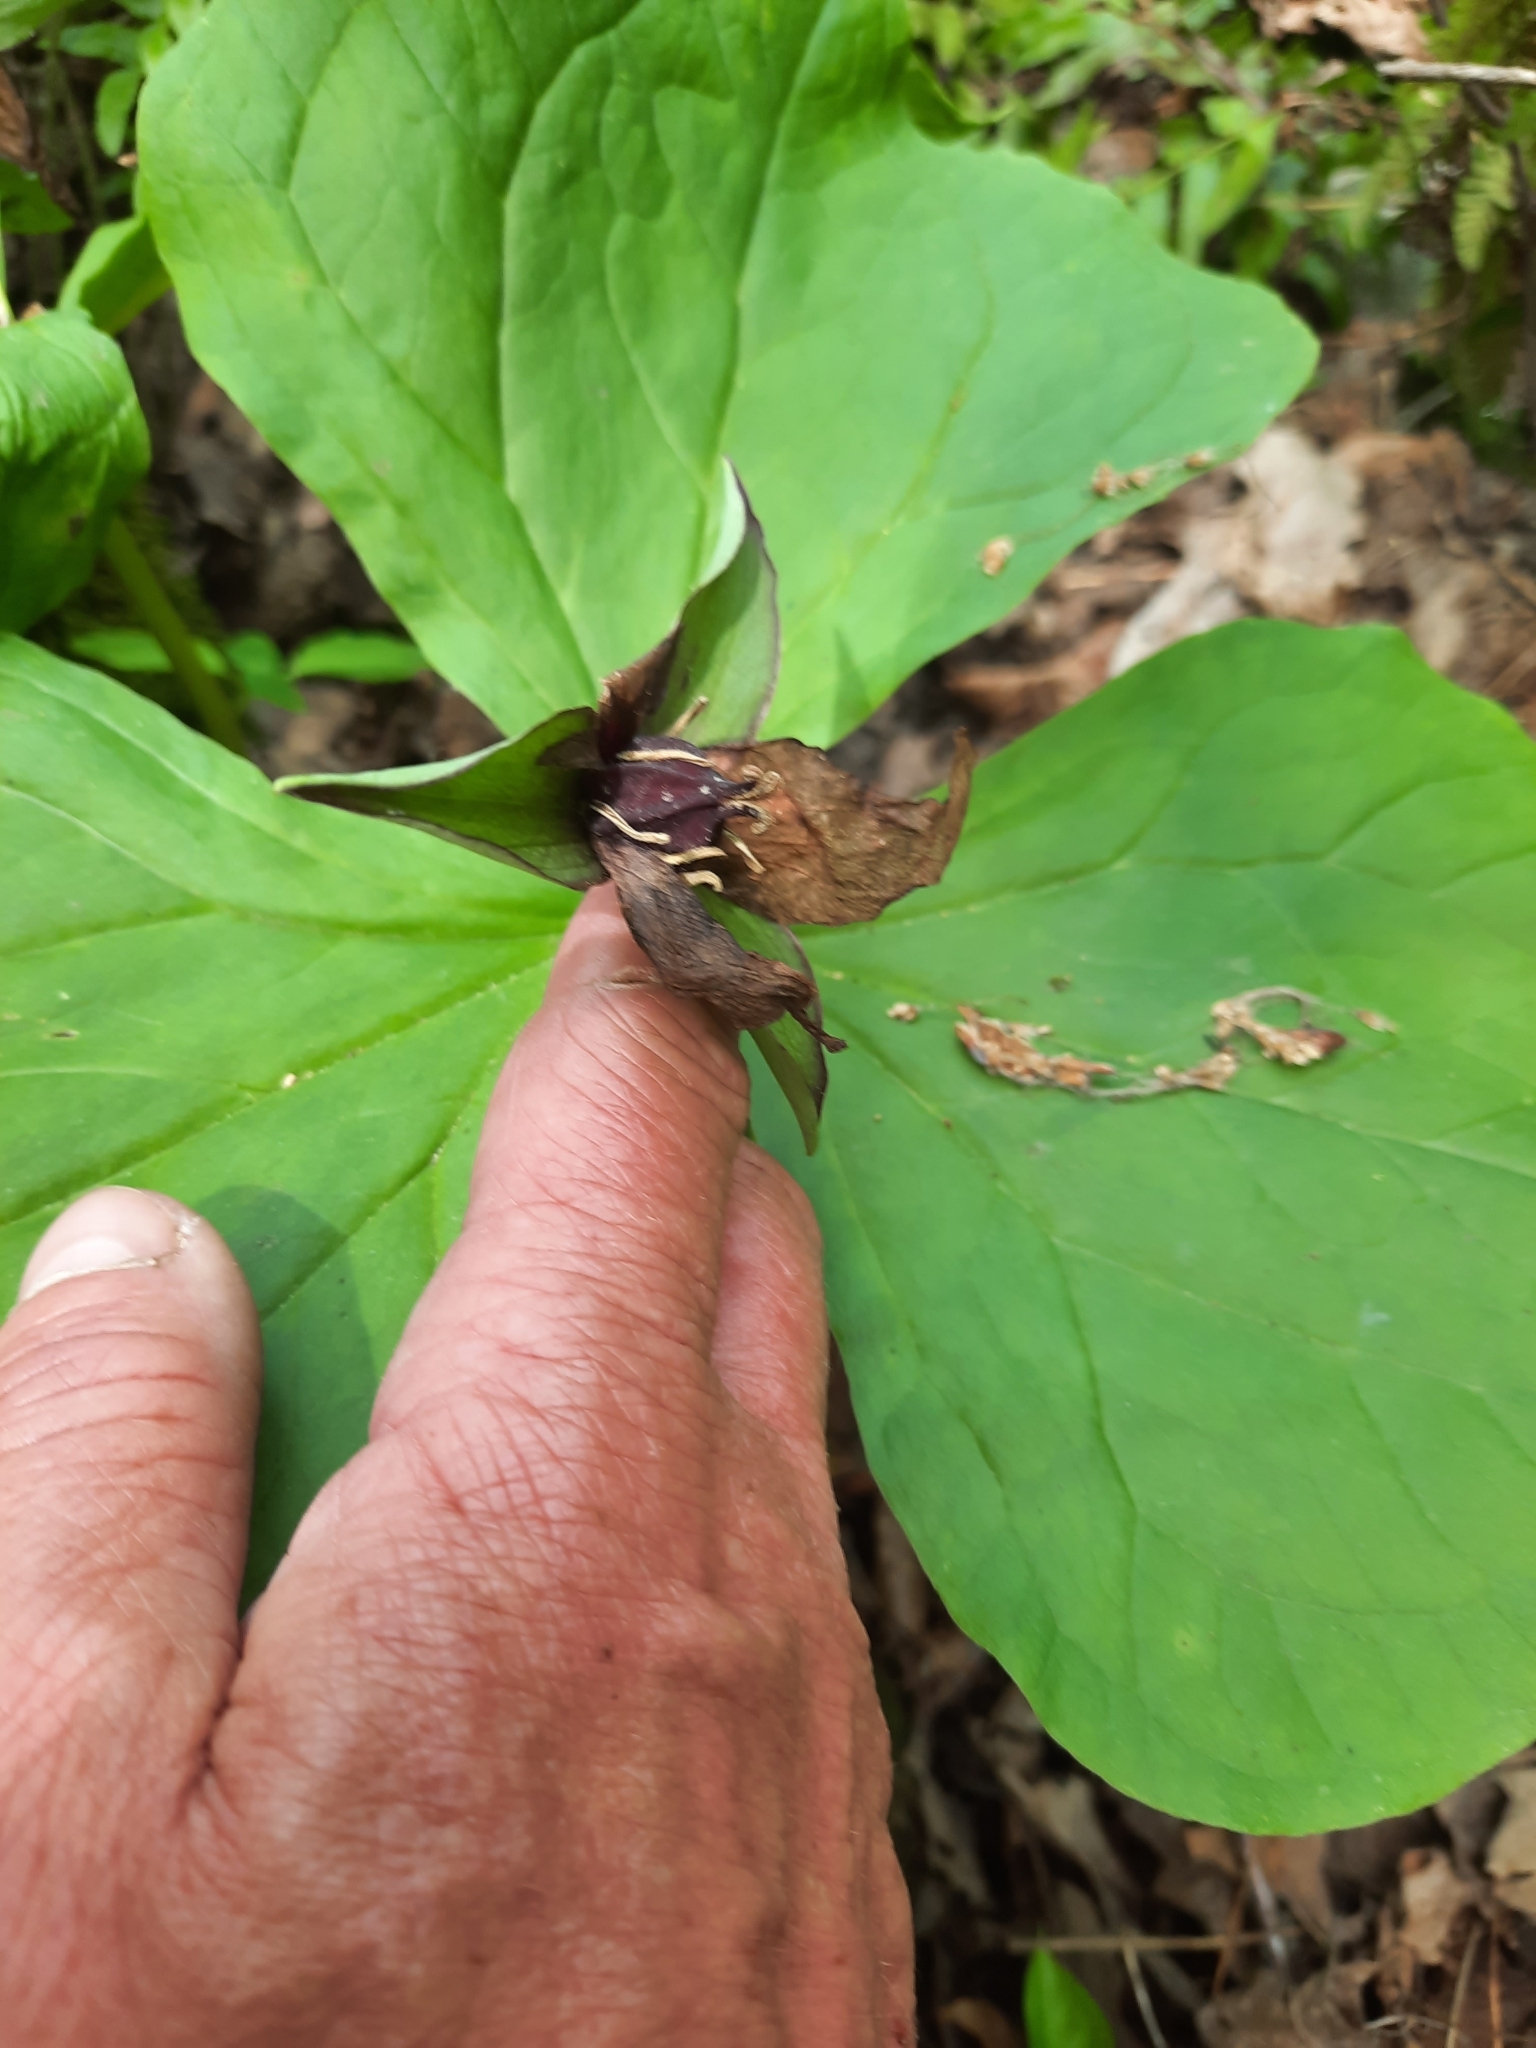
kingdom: Plantae
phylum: Tracheophyta
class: Liliopsida
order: Liliales
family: Melanthiaceae
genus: Trillium
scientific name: Trillium erectum
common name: Purple trillium
